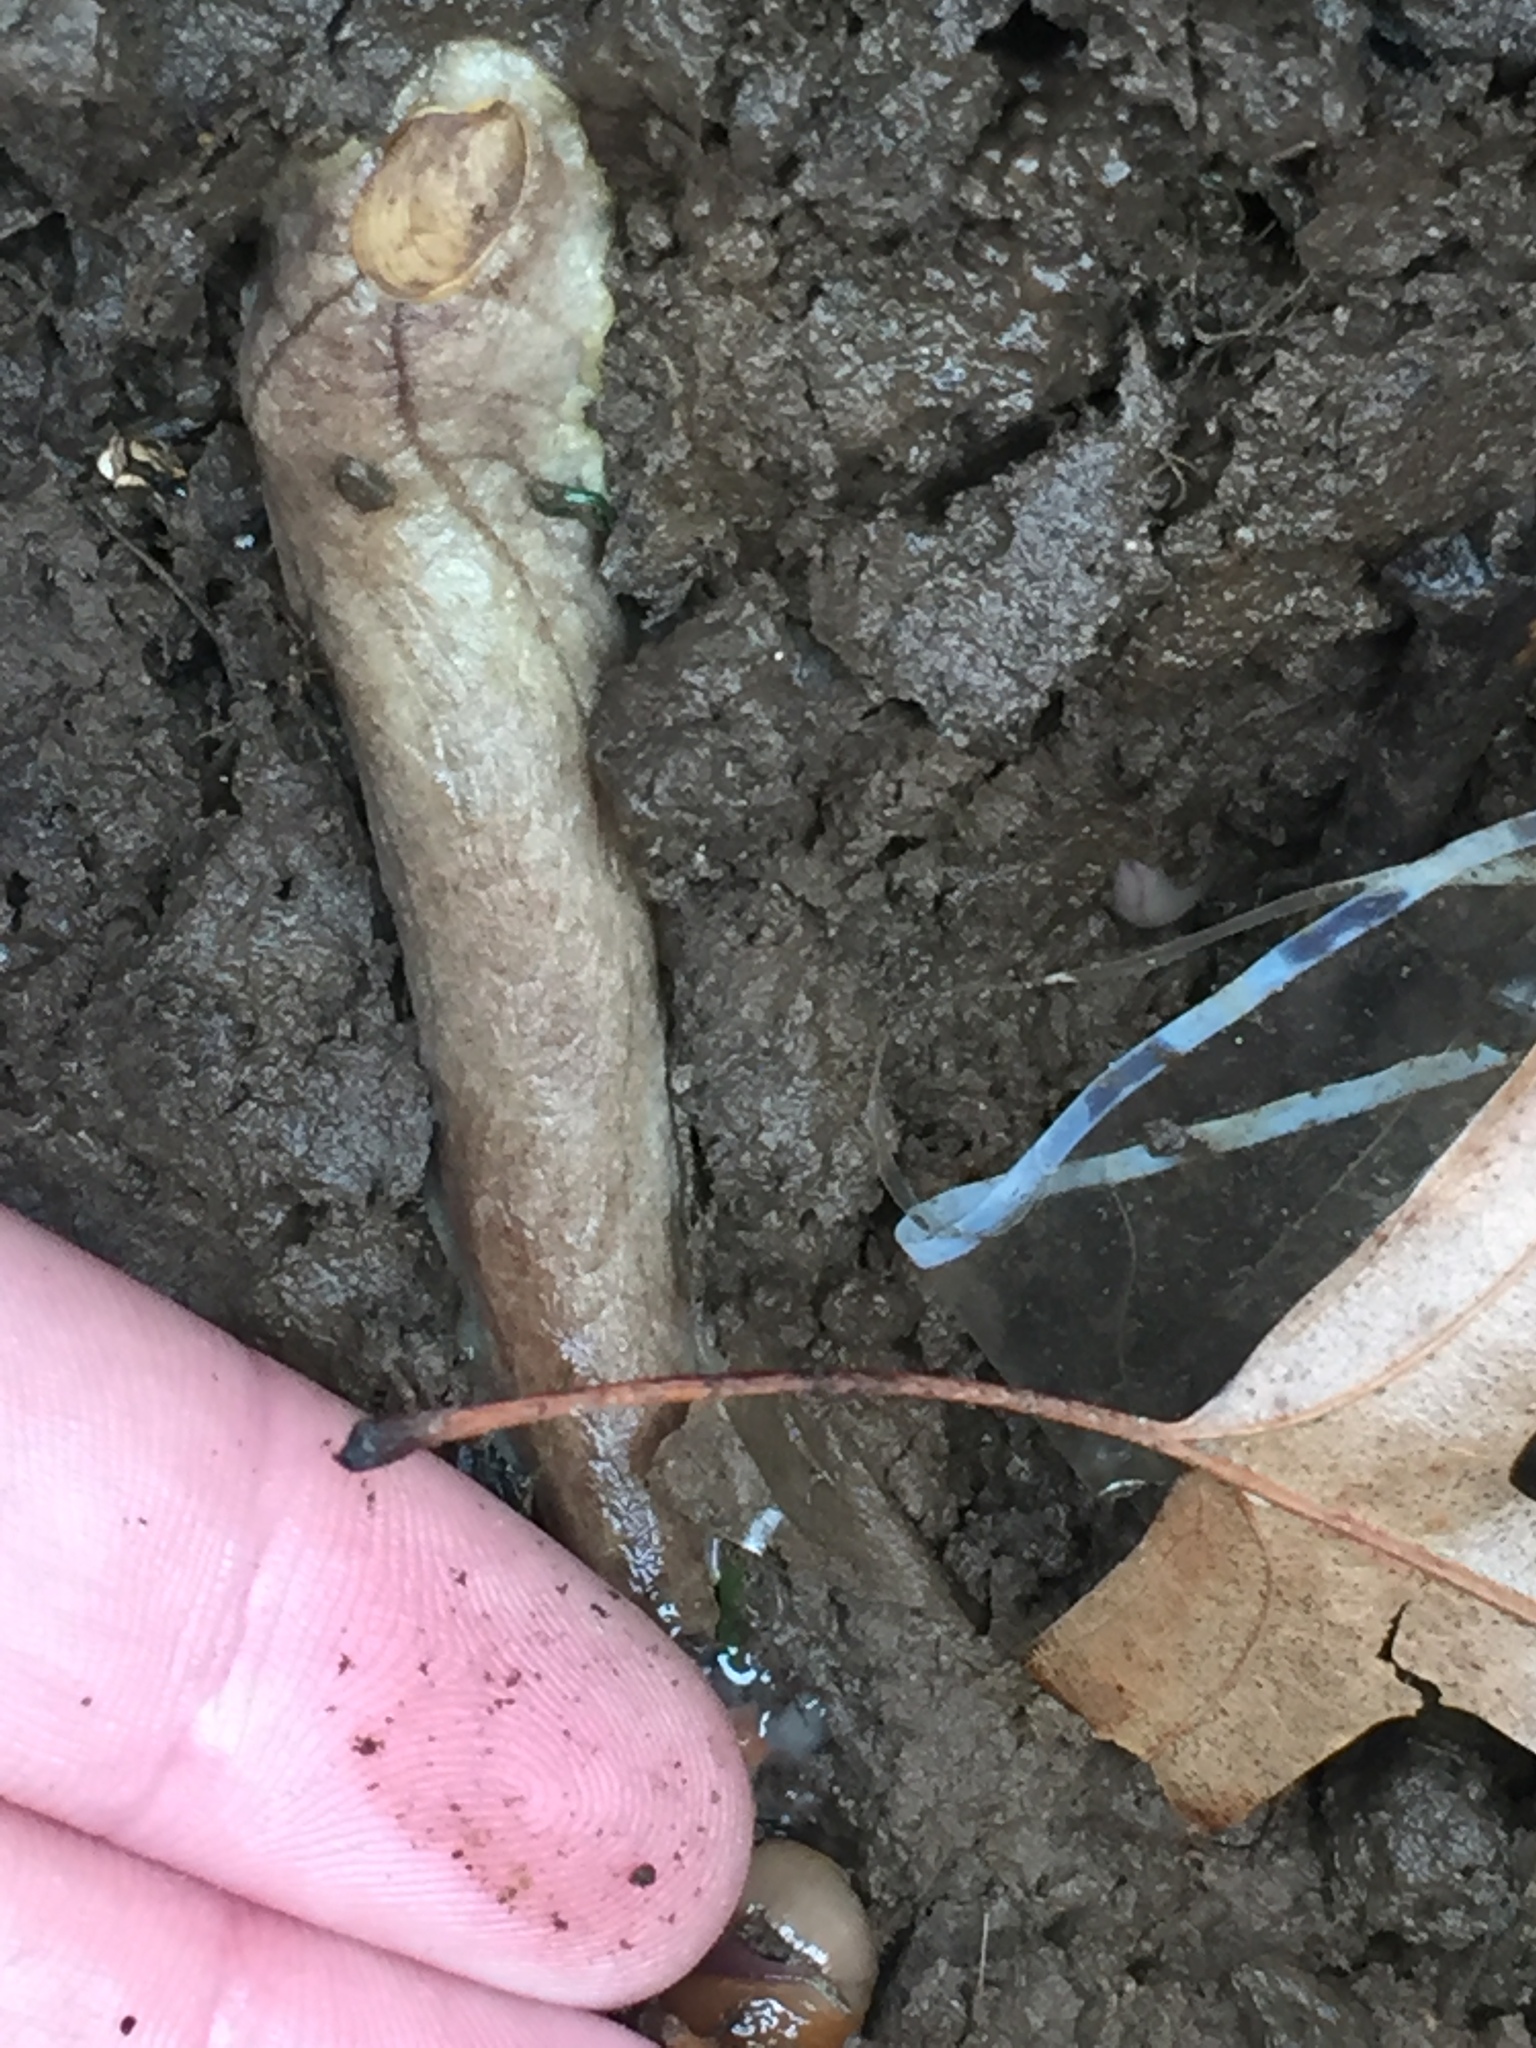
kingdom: Animalia
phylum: Mollusca
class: Gastropoda
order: Stylommatophora
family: Testacellidae
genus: Testacella
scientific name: Testacella haliotidea
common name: Shelled slug
